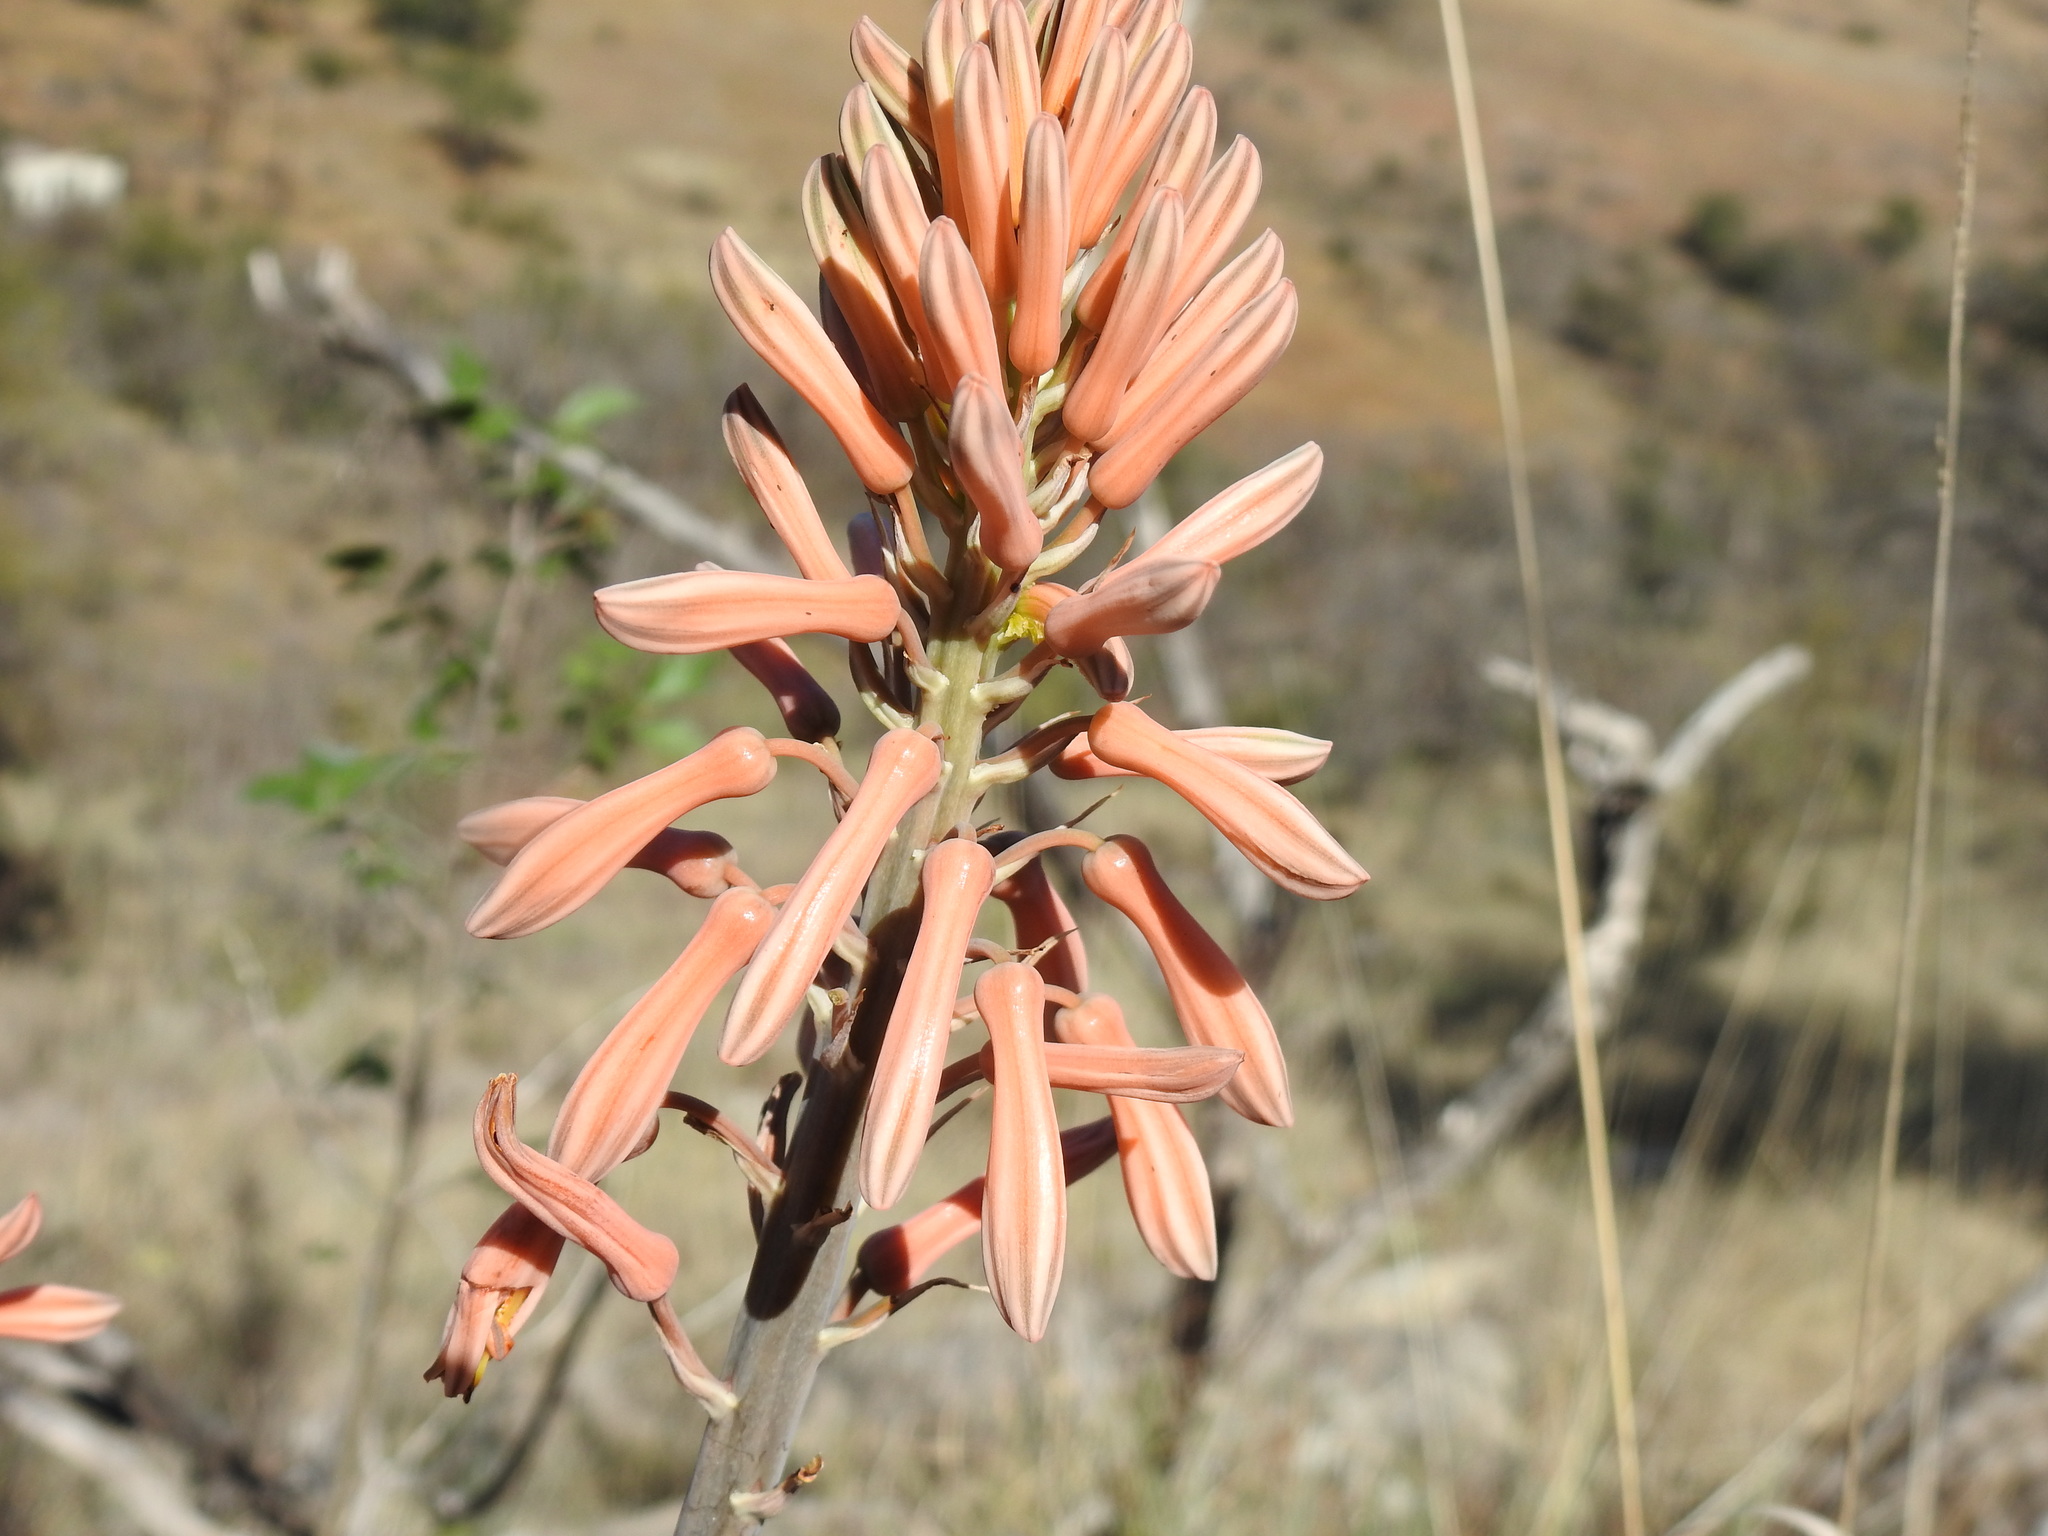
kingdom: Plantae
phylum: Tracheophyta
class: Liliopsida
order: Asparagales
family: Asphodelaceae
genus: Aloe
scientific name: Aloe davyana
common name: Spotted aloe
